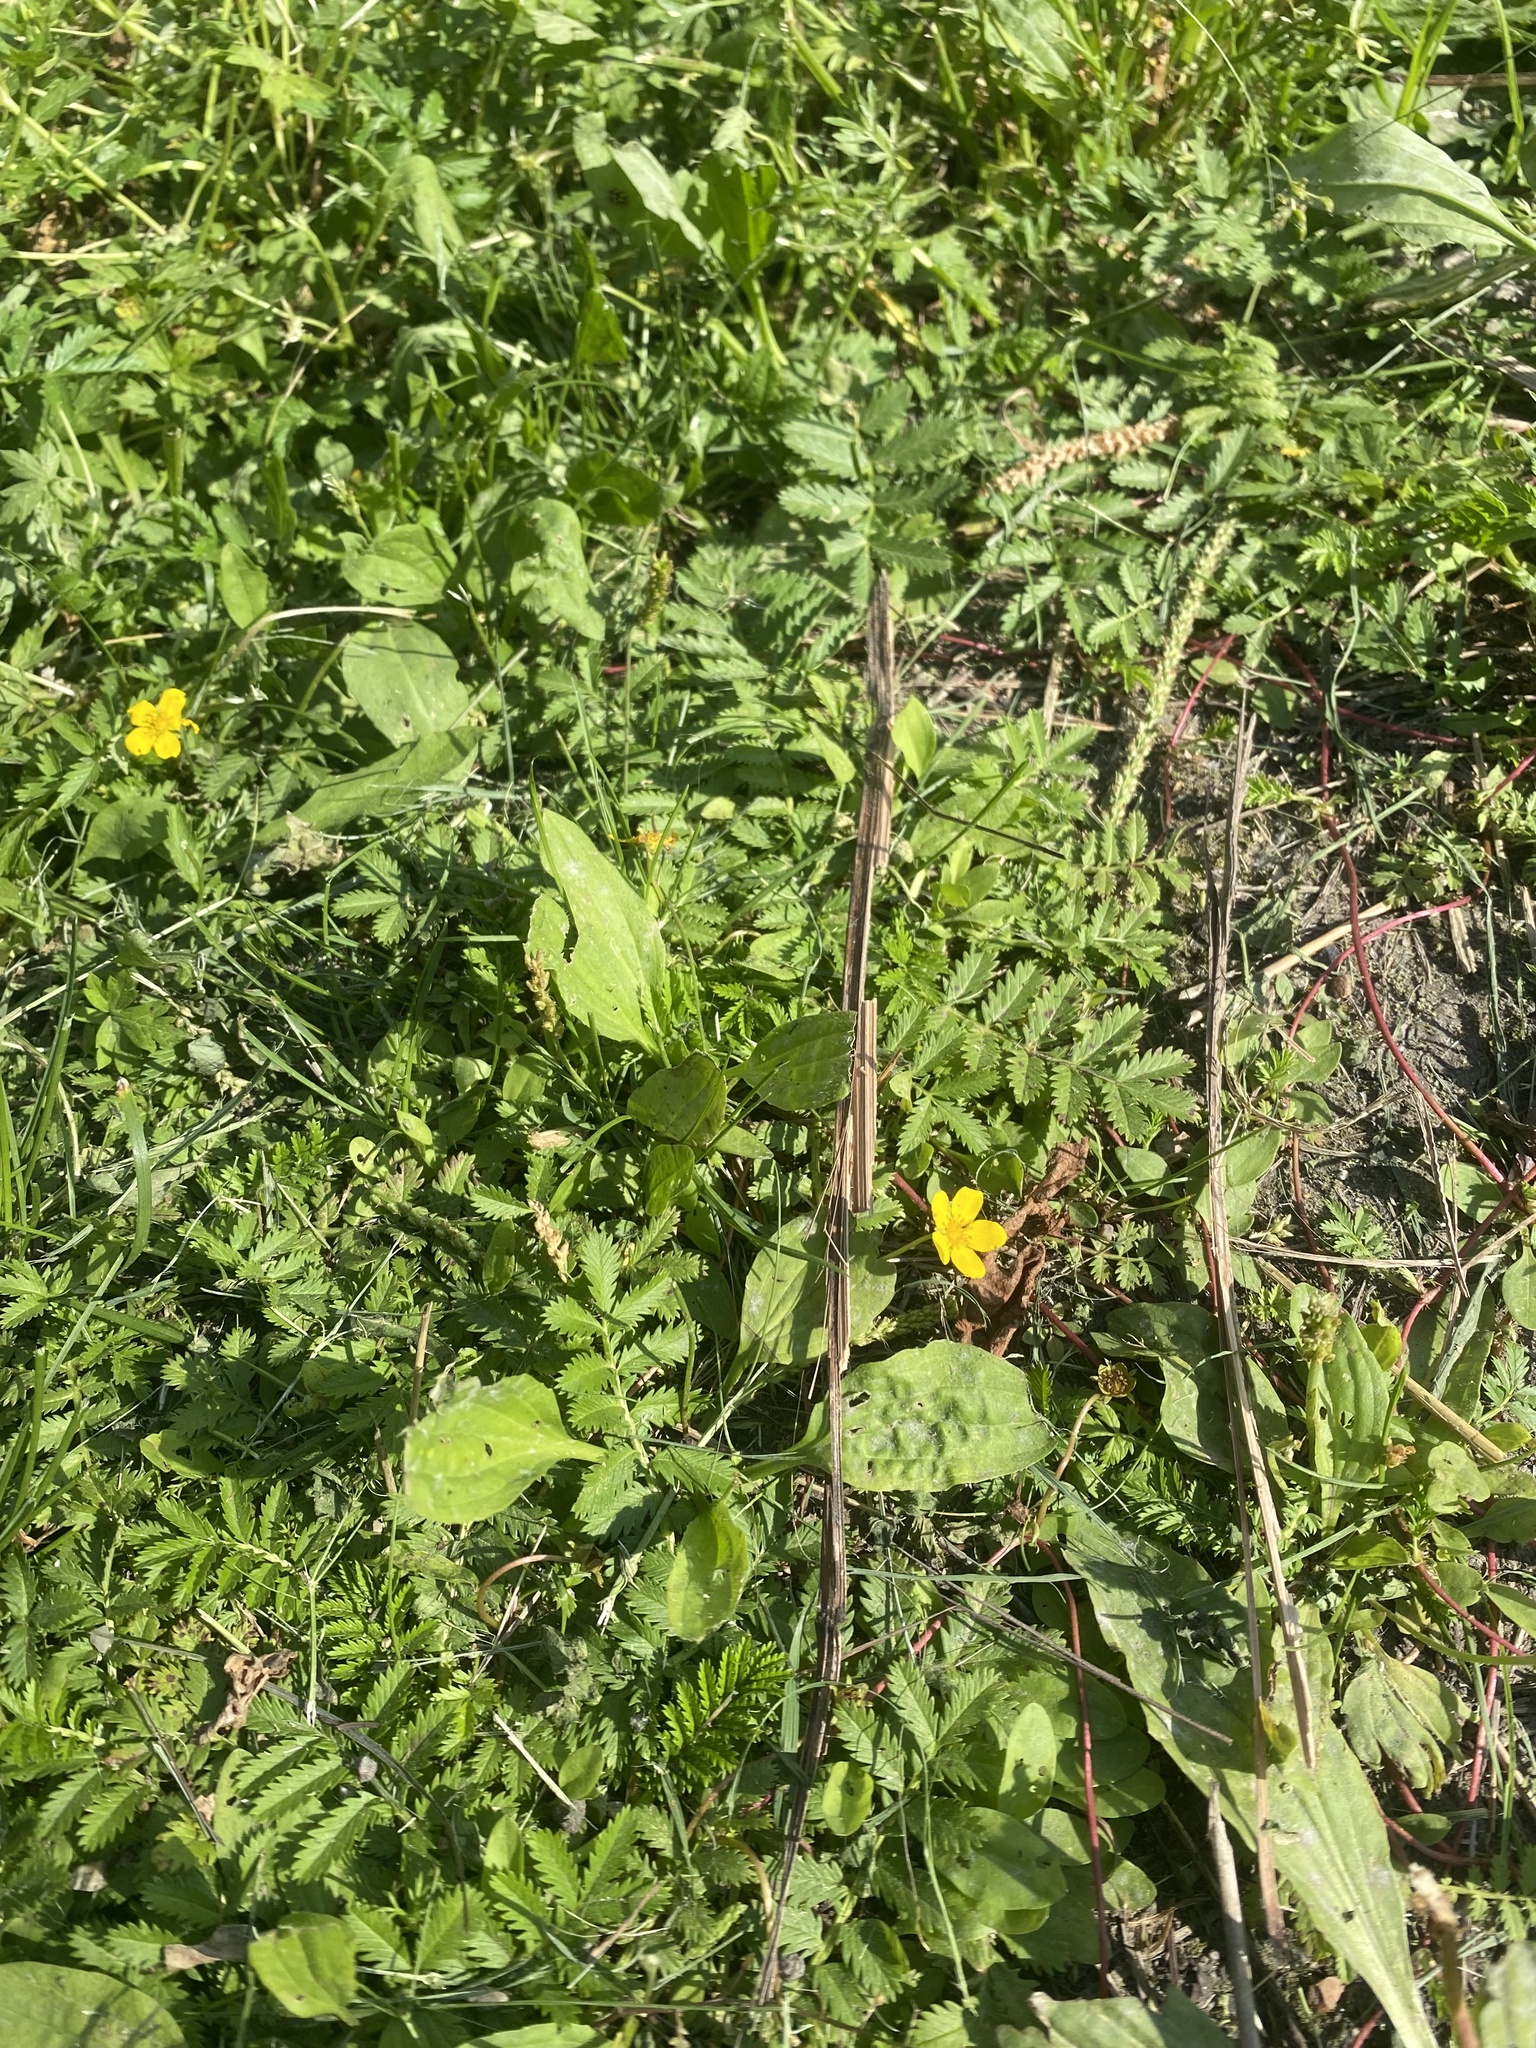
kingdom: Plantae
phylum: Tracheophyta
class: Magnoliopsida
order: Rosales
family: Rosaceae
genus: Argentina
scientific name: Argentina anserina
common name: Common silverweed
